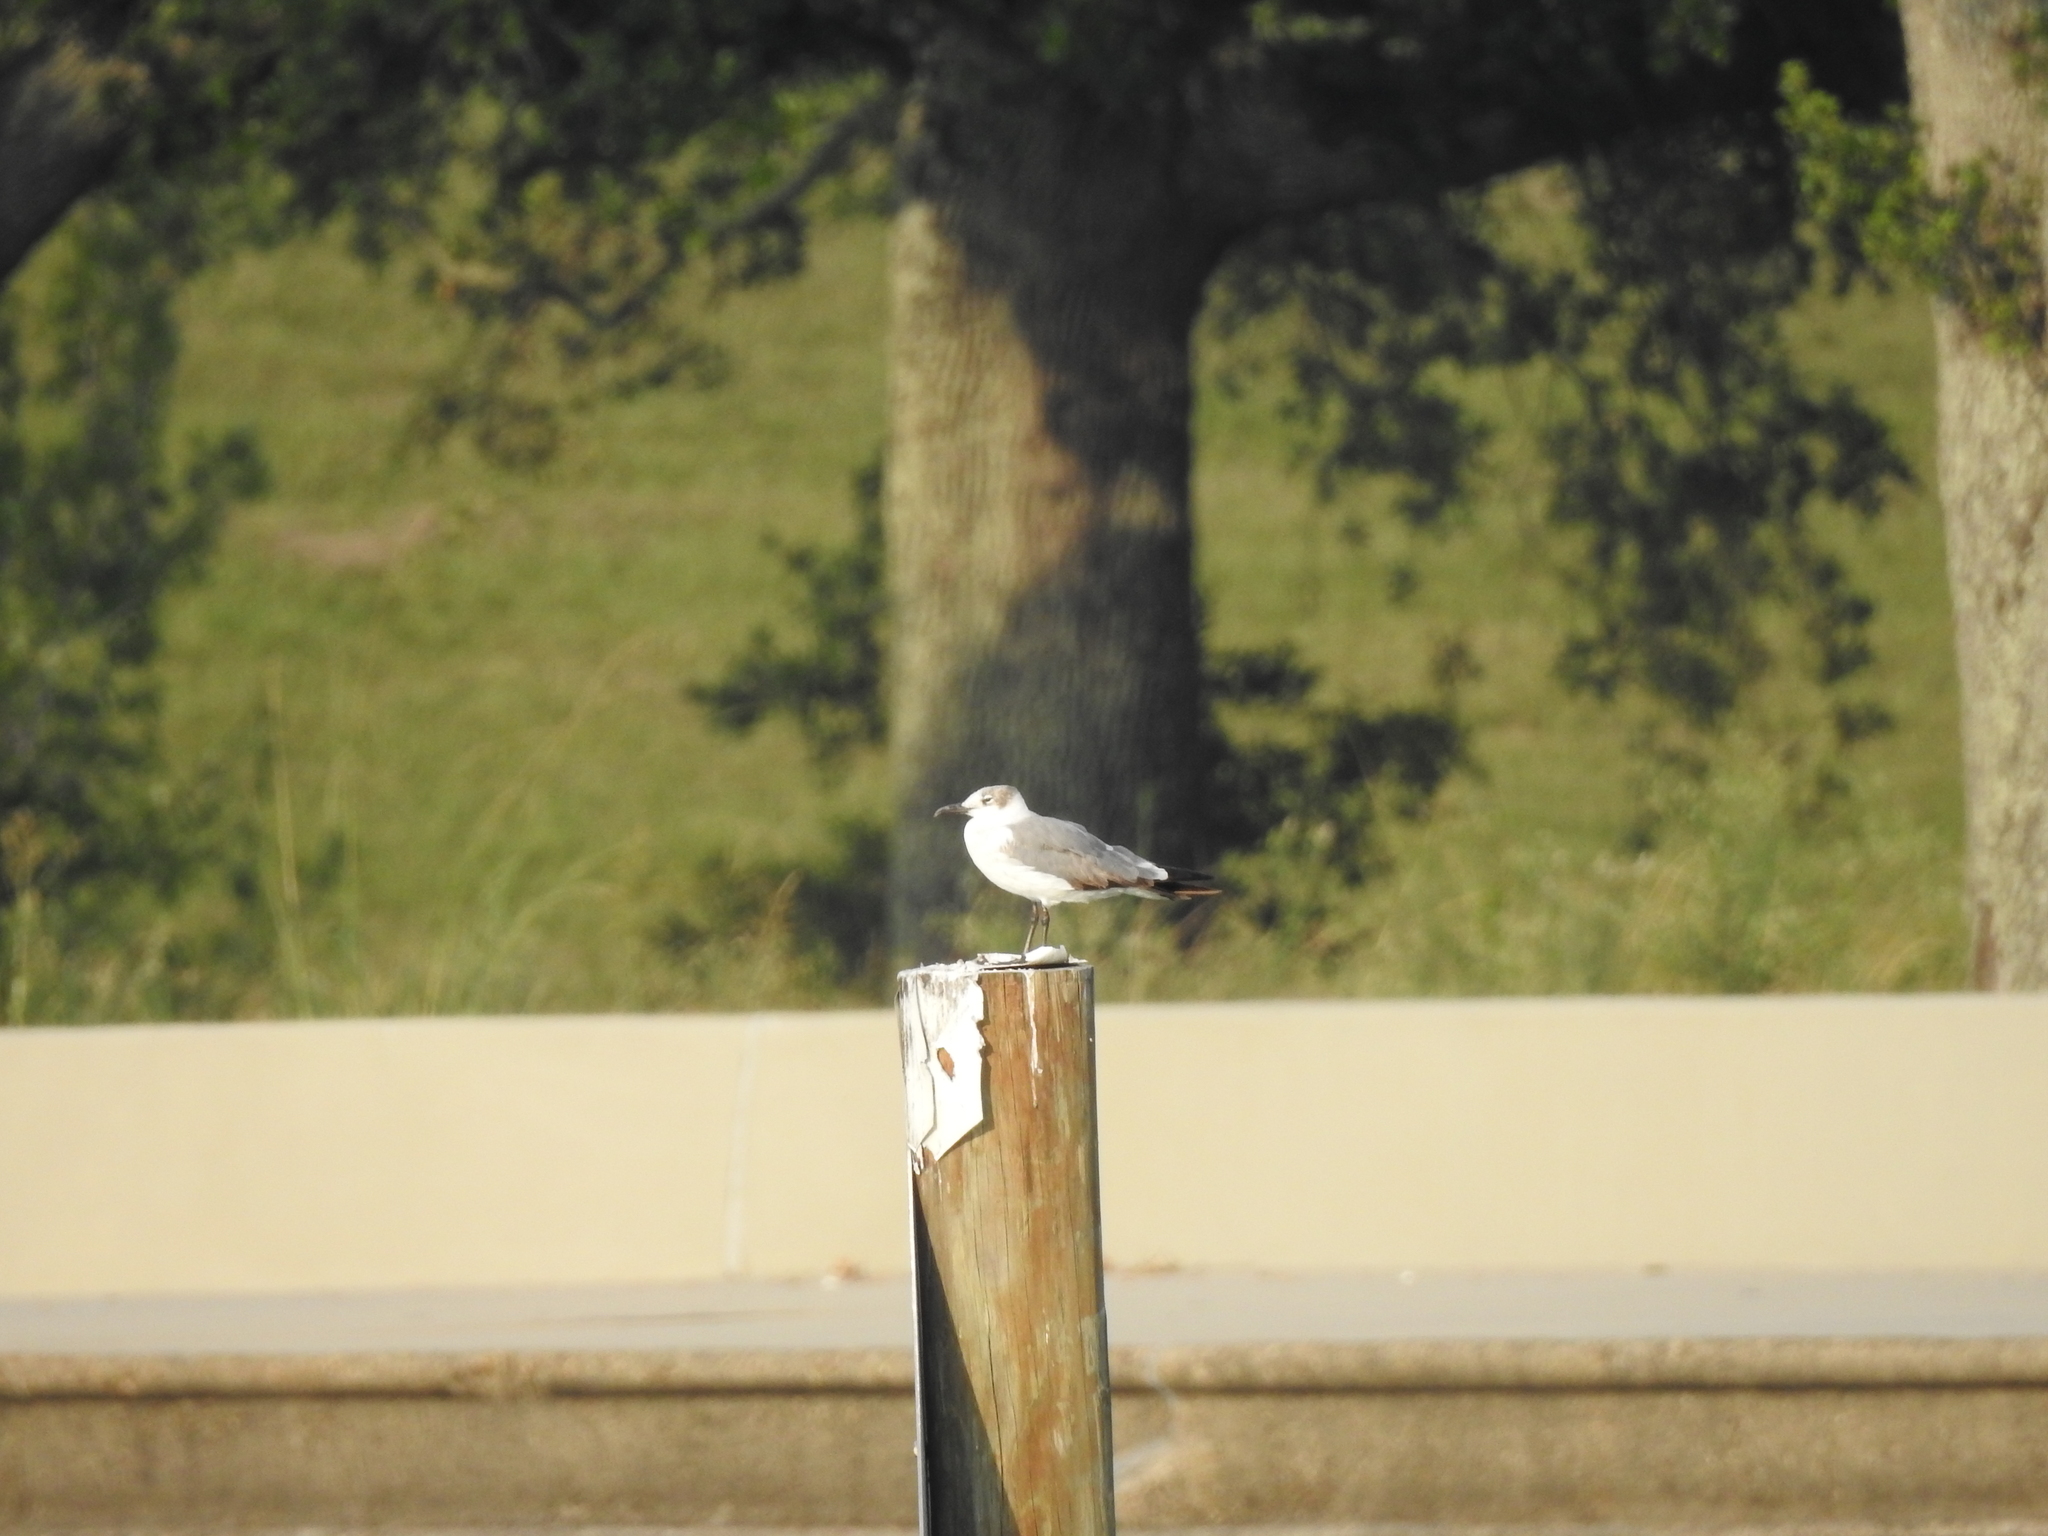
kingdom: Animalia
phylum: Chordata
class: Aves
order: Charadriiformes
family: Laridae
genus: Leucophaeus
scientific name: Leucophaeus atricilla
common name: Laughing gull
